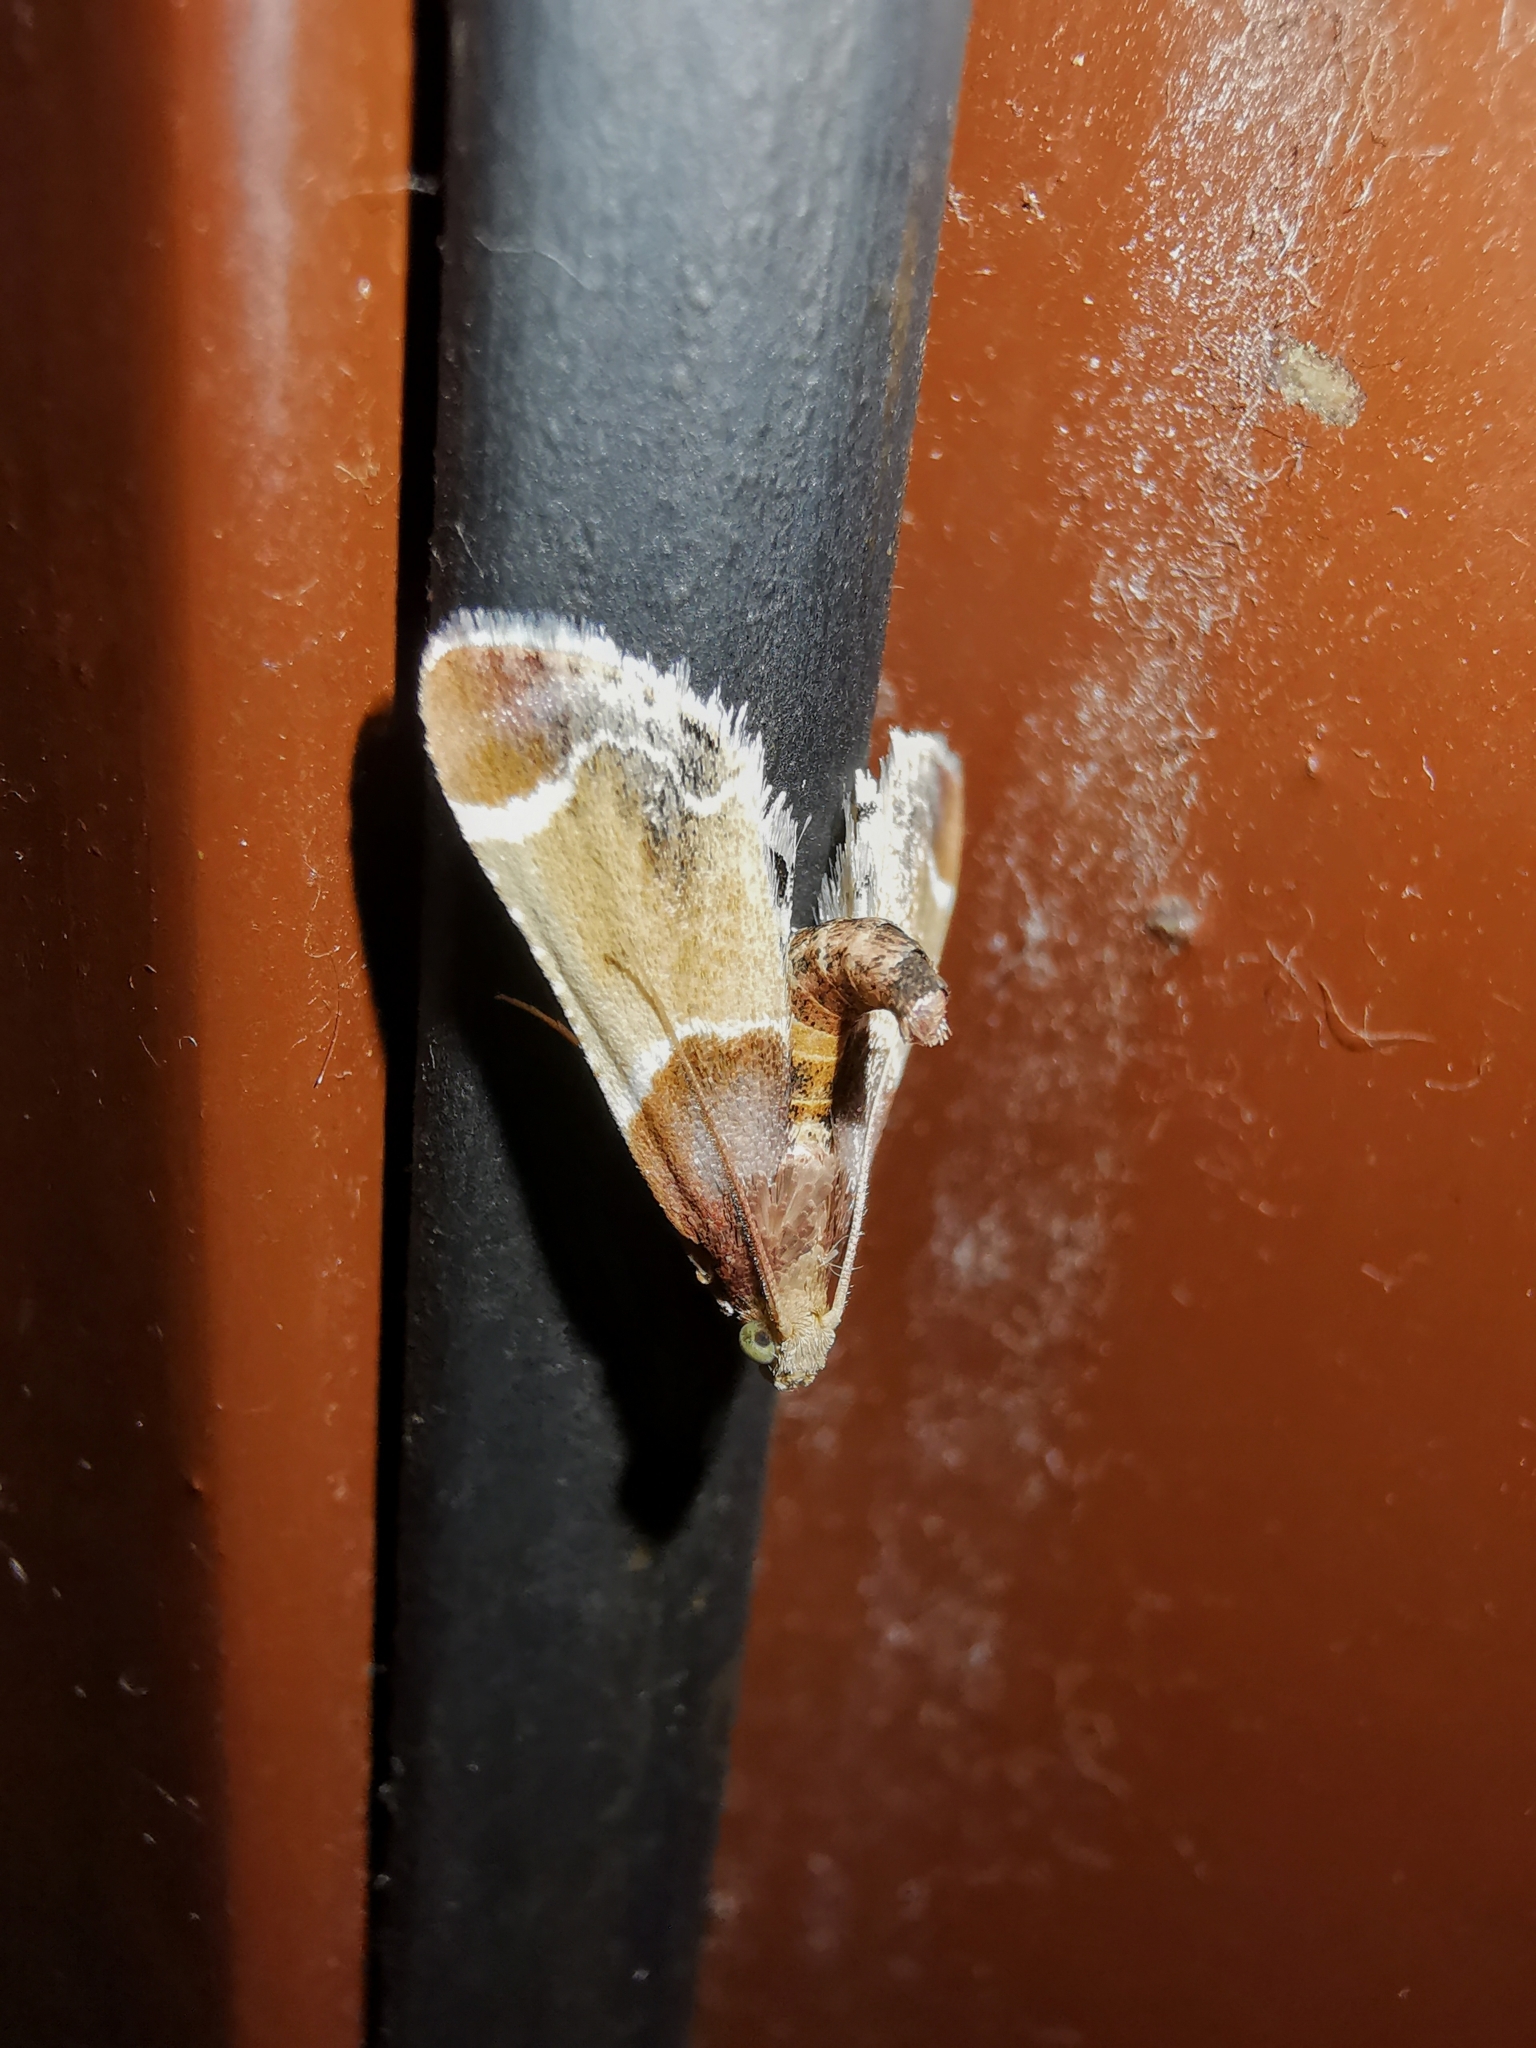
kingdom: Animalia
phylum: Arthropoda
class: Insecta
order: Lepidoptera
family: Pyralidae
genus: Pyralis
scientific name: Pyralis farinalis
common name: Meal moth
